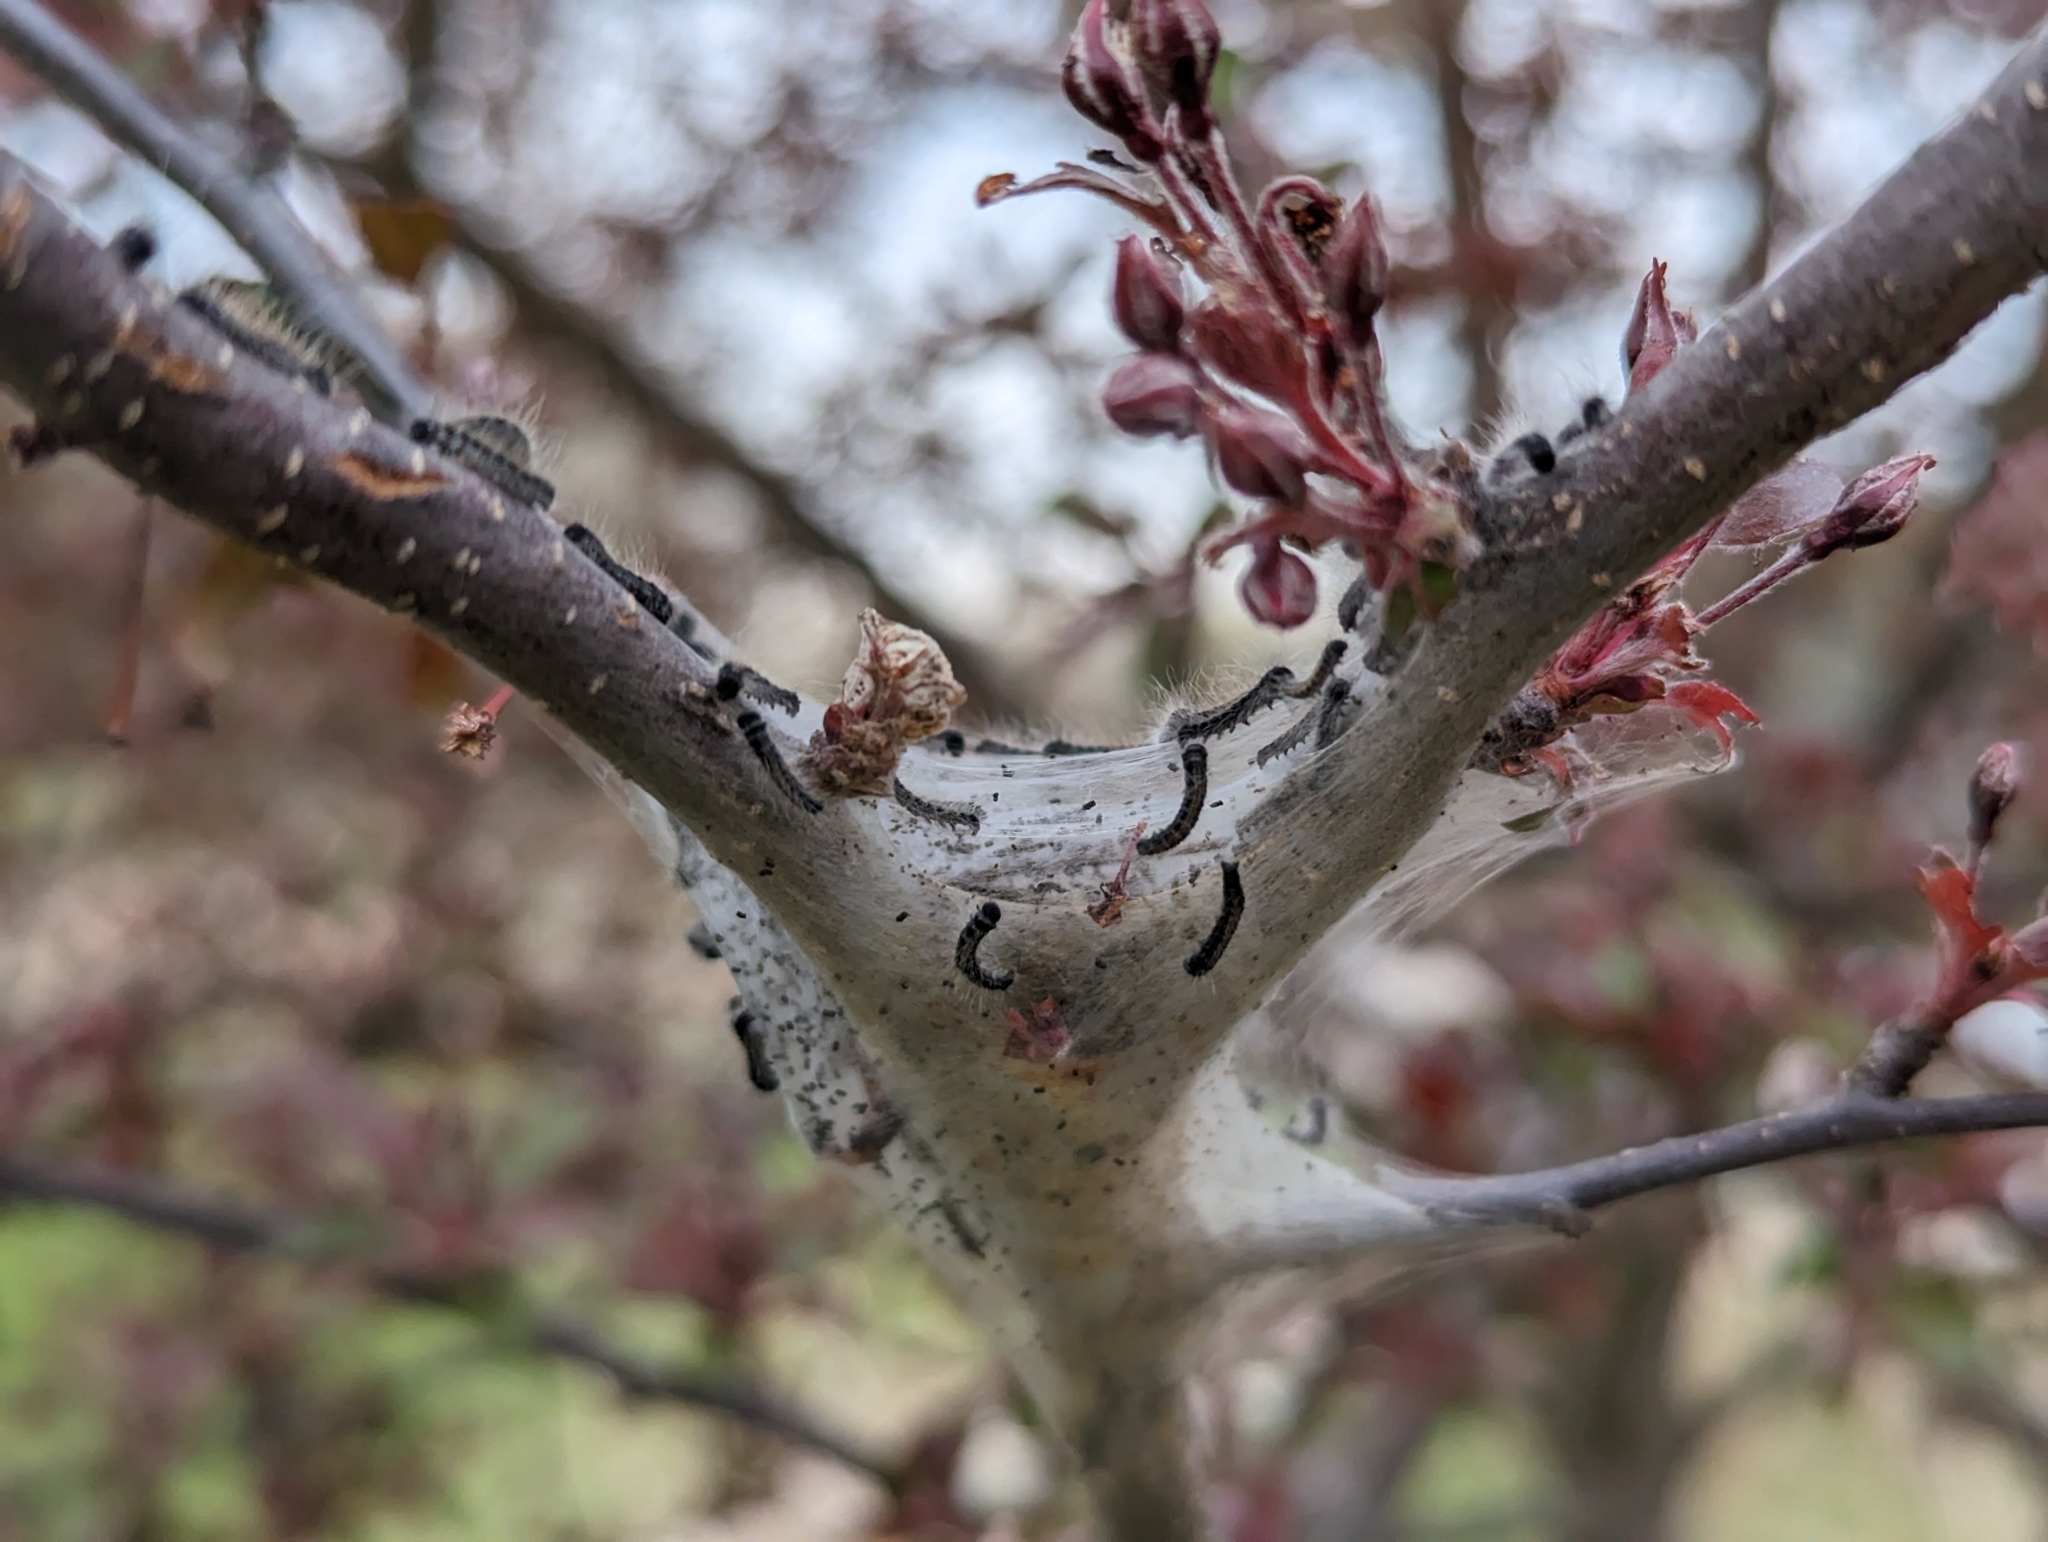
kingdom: Animalia
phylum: Arthropoda
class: Insecta
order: Lepidoptera
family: Lasiocampidae
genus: Malacosoma
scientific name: Malacosoma americana
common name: Eastern tent caterpillar moth
